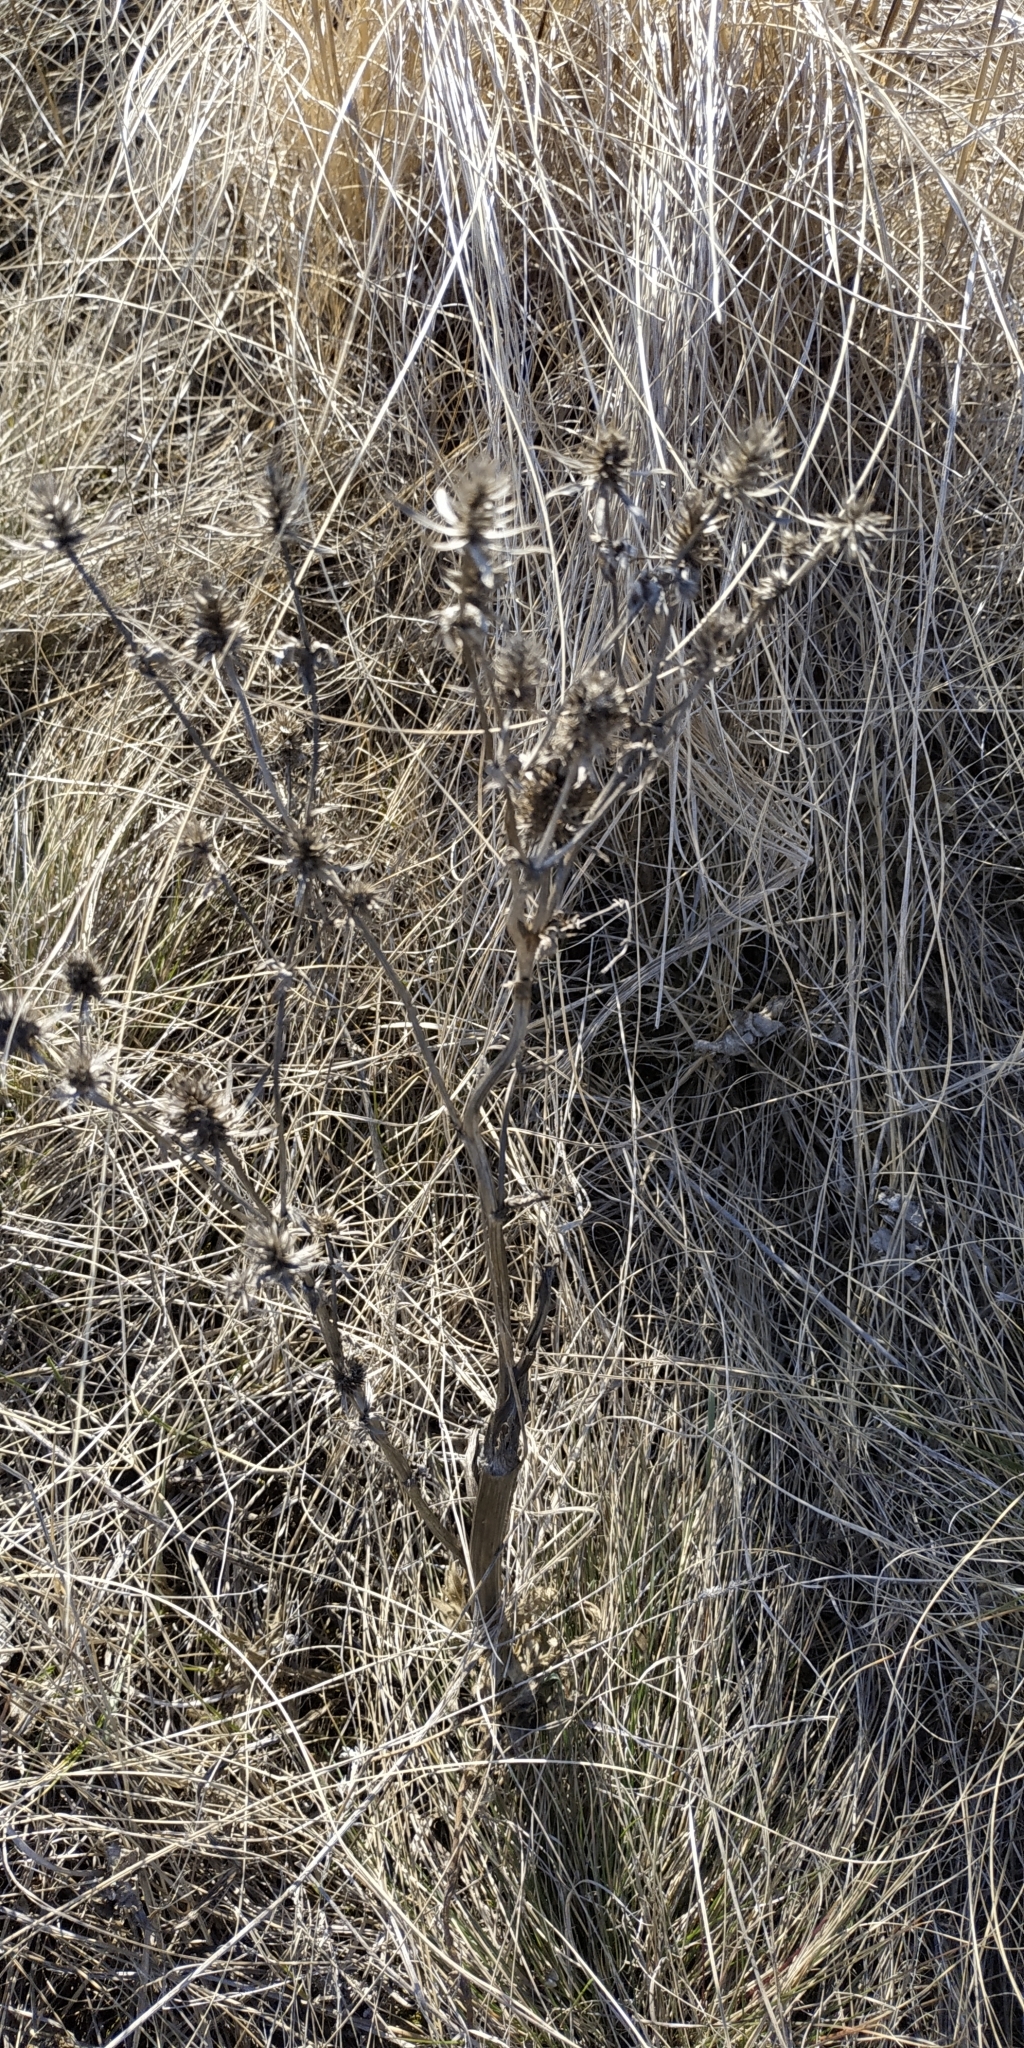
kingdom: Plantae
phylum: Tracheophyta
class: Magnoliopsida
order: Apiales
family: Apiaceae
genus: Eryngium
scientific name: Eryngium planum
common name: Blue eryngo
